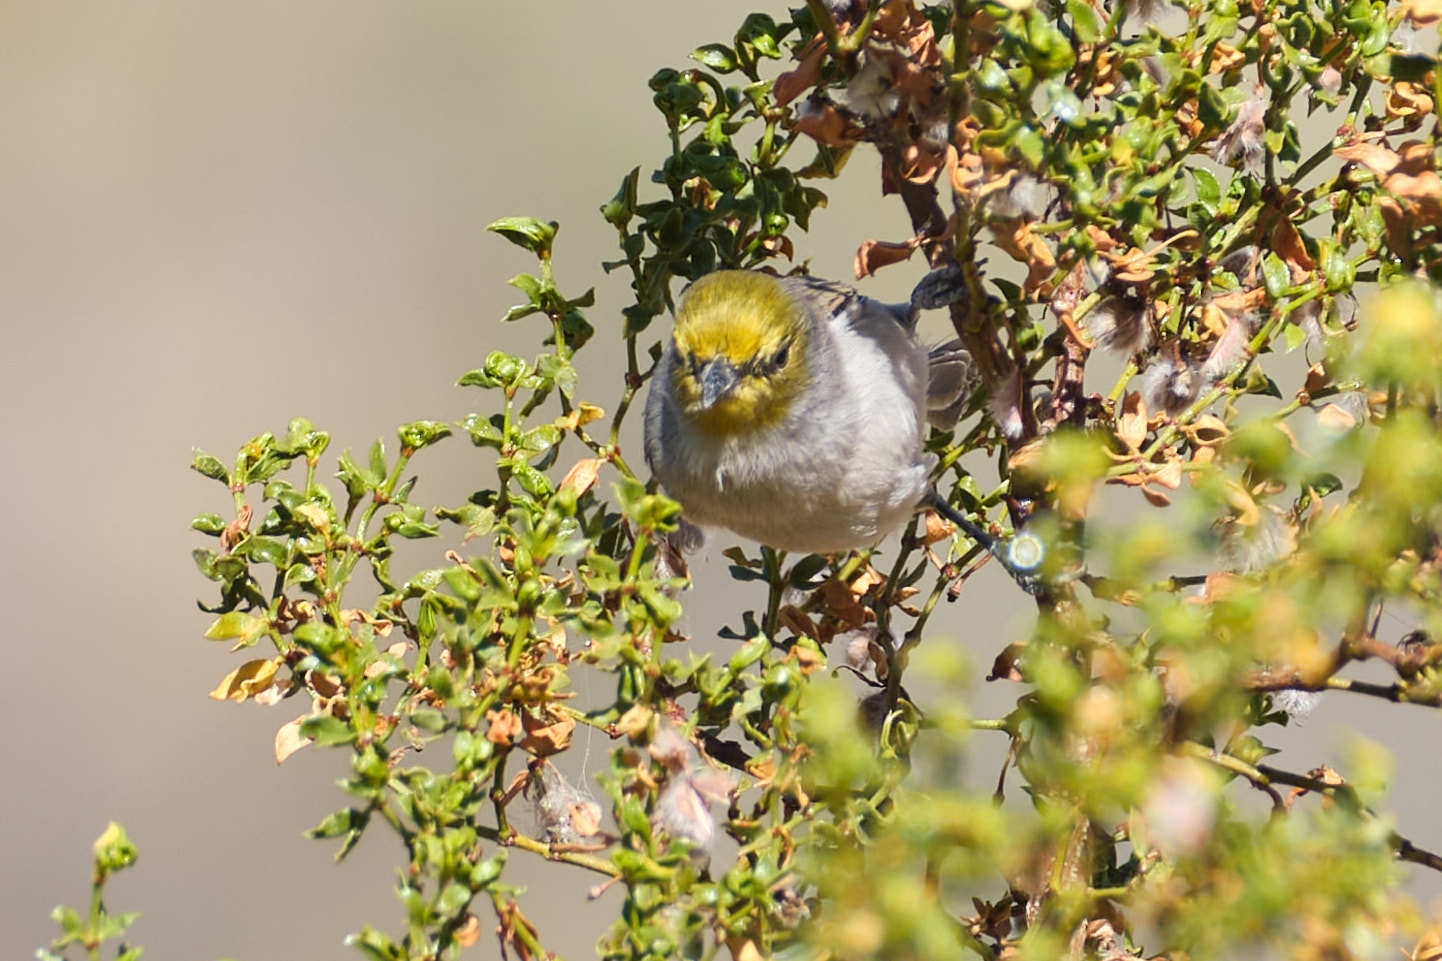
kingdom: Animalia
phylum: Chordata
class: Aves
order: Passeriformes
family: Remizidae
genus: Auriparus
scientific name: Auriparus flaviceps
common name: Verdin
